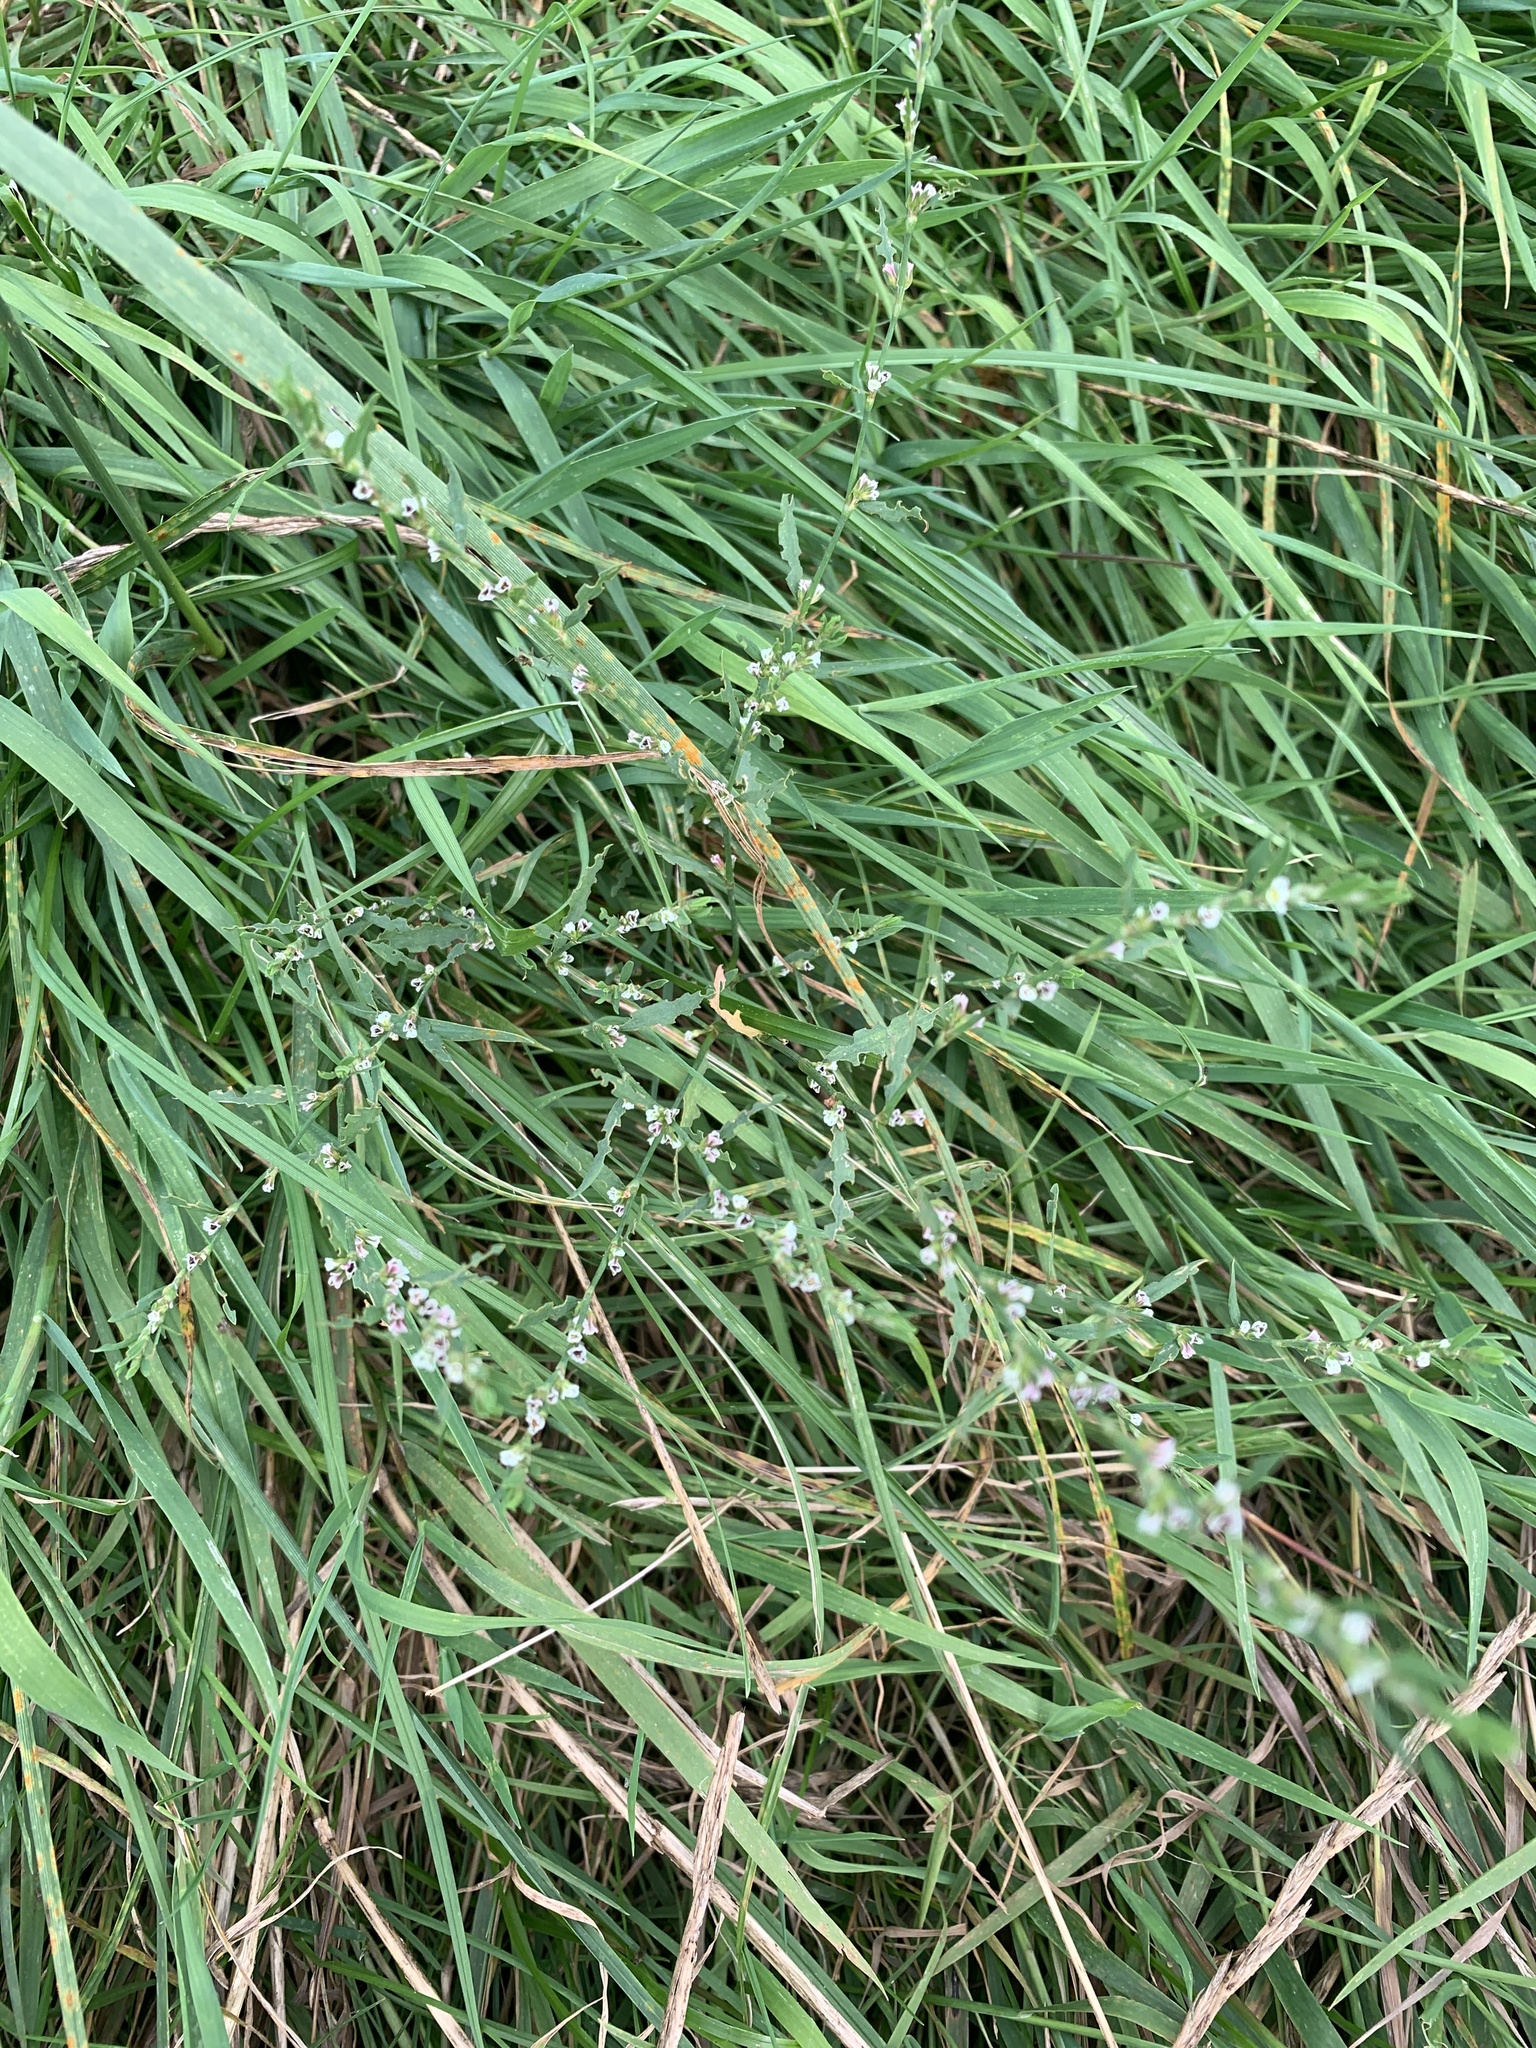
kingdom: Plantae
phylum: Tracheophyta
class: Magnoliopsida
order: Caryophyllales
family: Polygonaceae
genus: Polygonum
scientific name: Polygonum aviculare
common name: Prostrate knotweed
